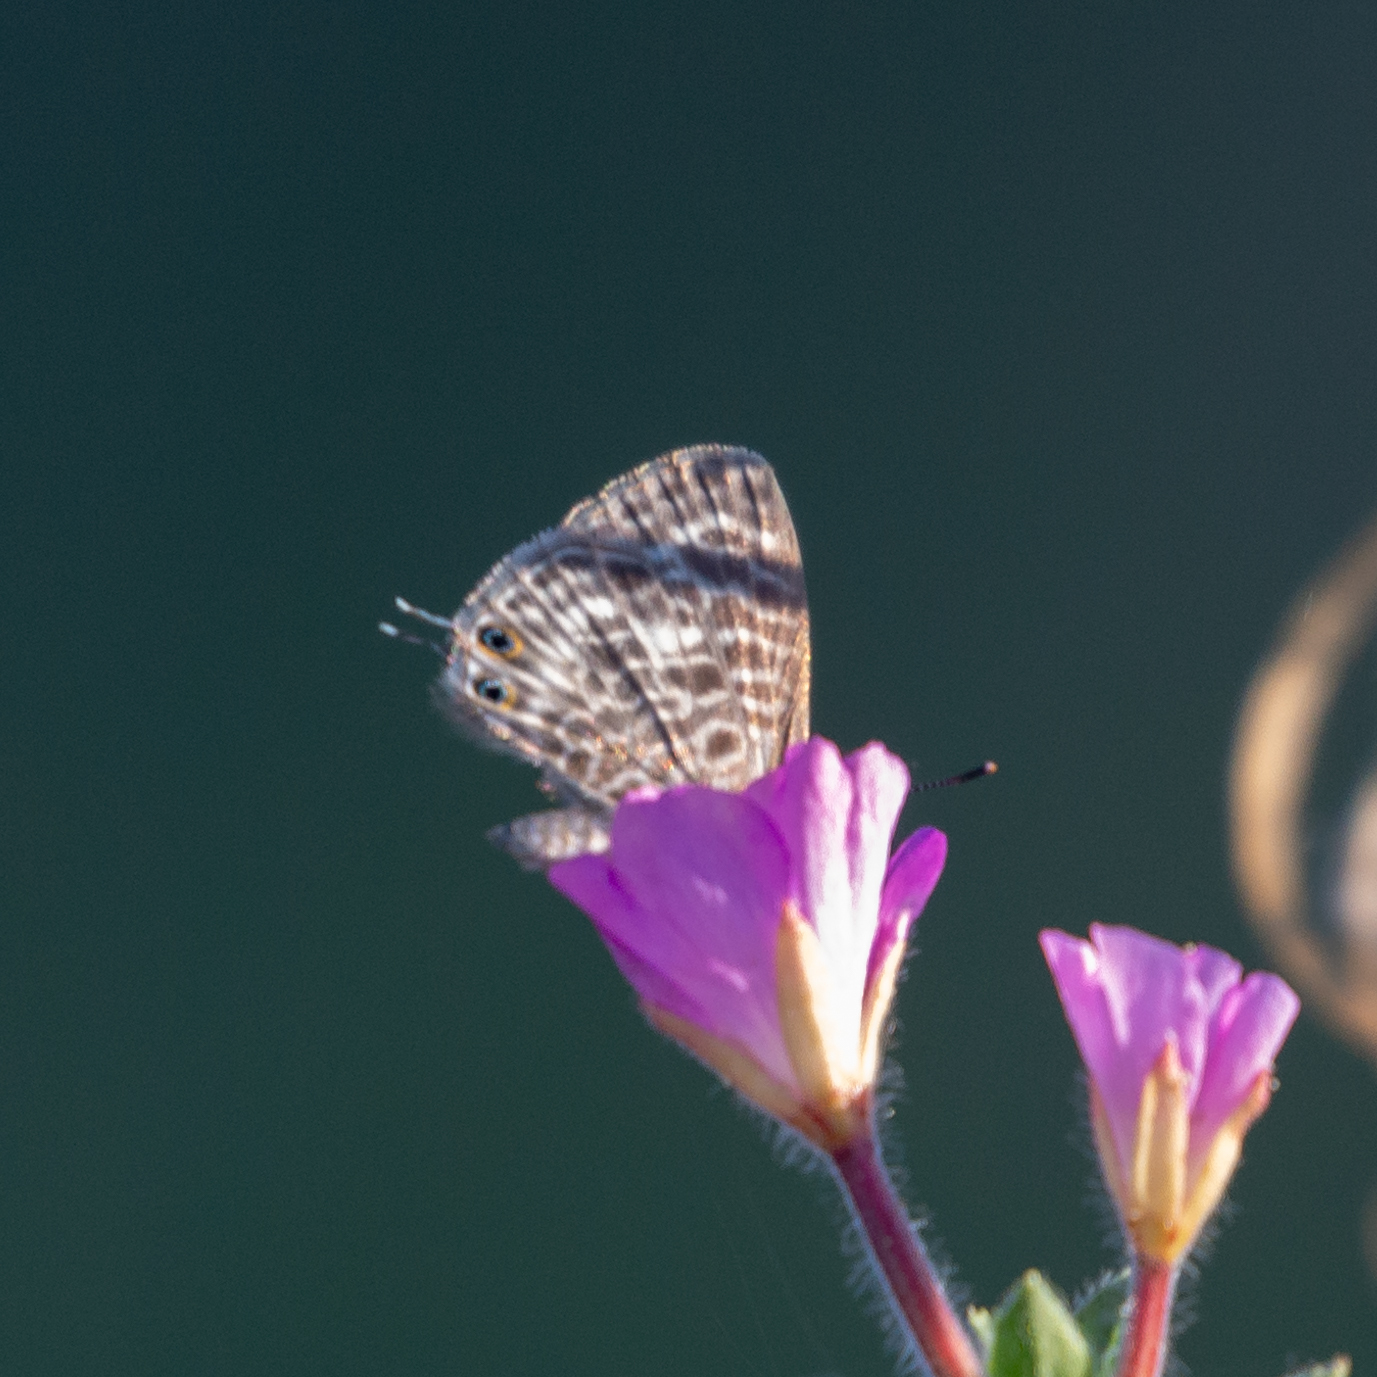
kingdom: Animalia
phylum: Arthropoda
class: Insecta
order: Lepidoptera
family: Lycaenidae
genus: Leptotes
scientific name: Leptotes pirithous
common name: Lang's short-tailed blue
